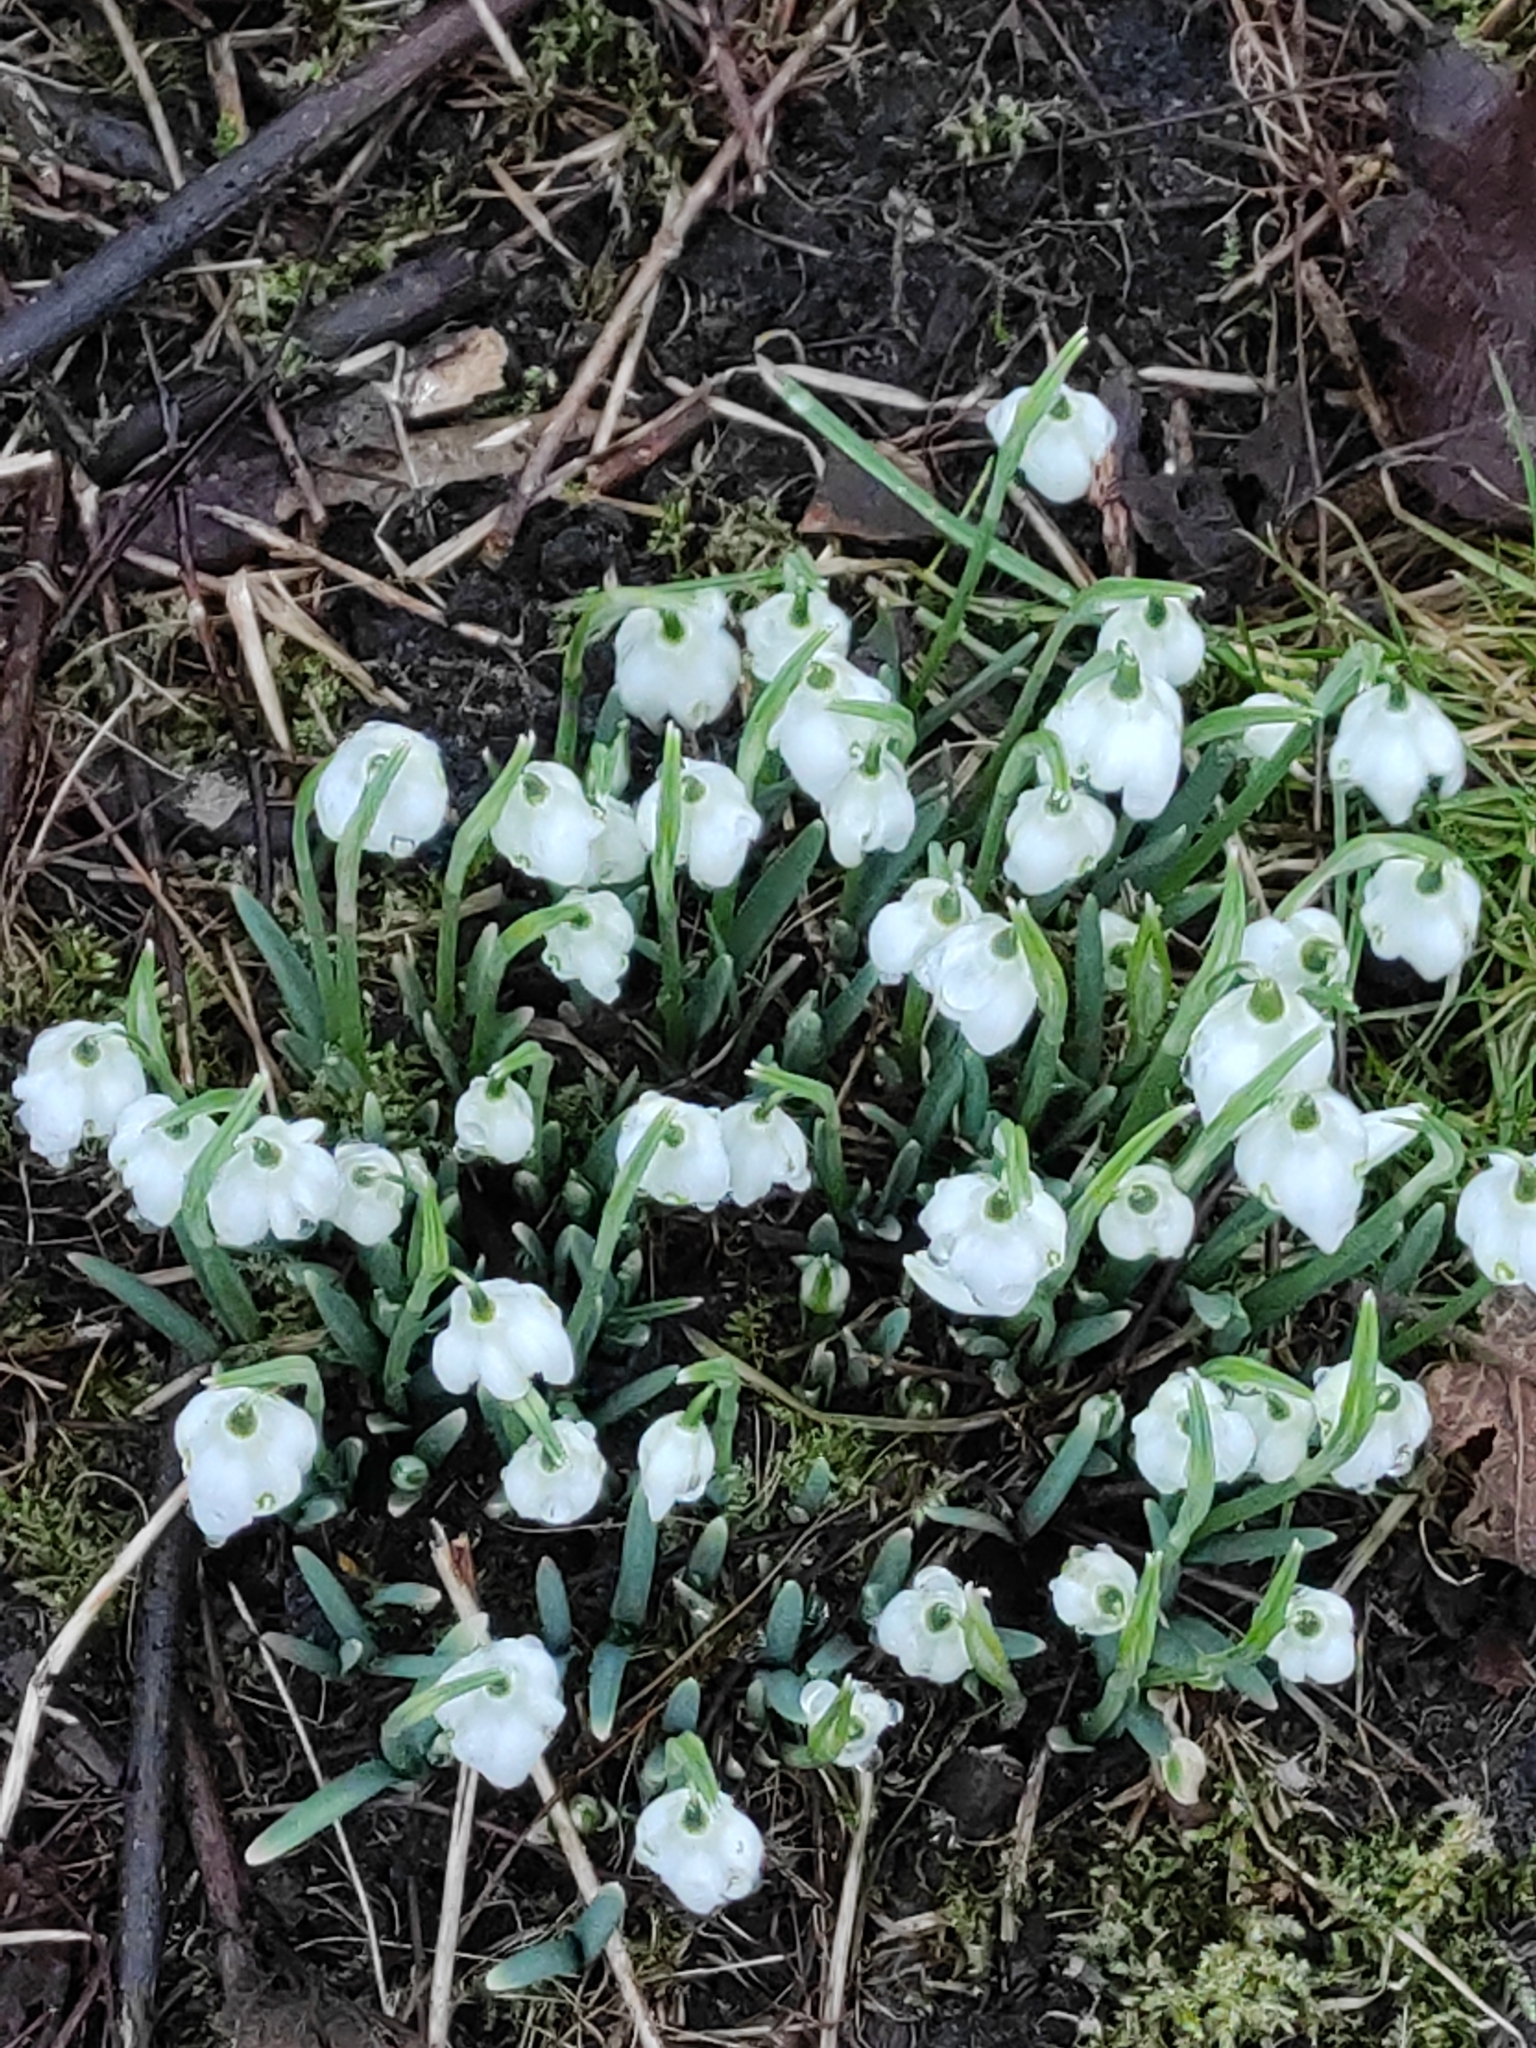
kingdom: Plantae
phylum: Tracheophyta
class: Liliopsida
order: Asparagales
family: Amaryllidaceae
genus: Galanthus
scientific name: Galanthus nivalis
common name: Snowdrop
